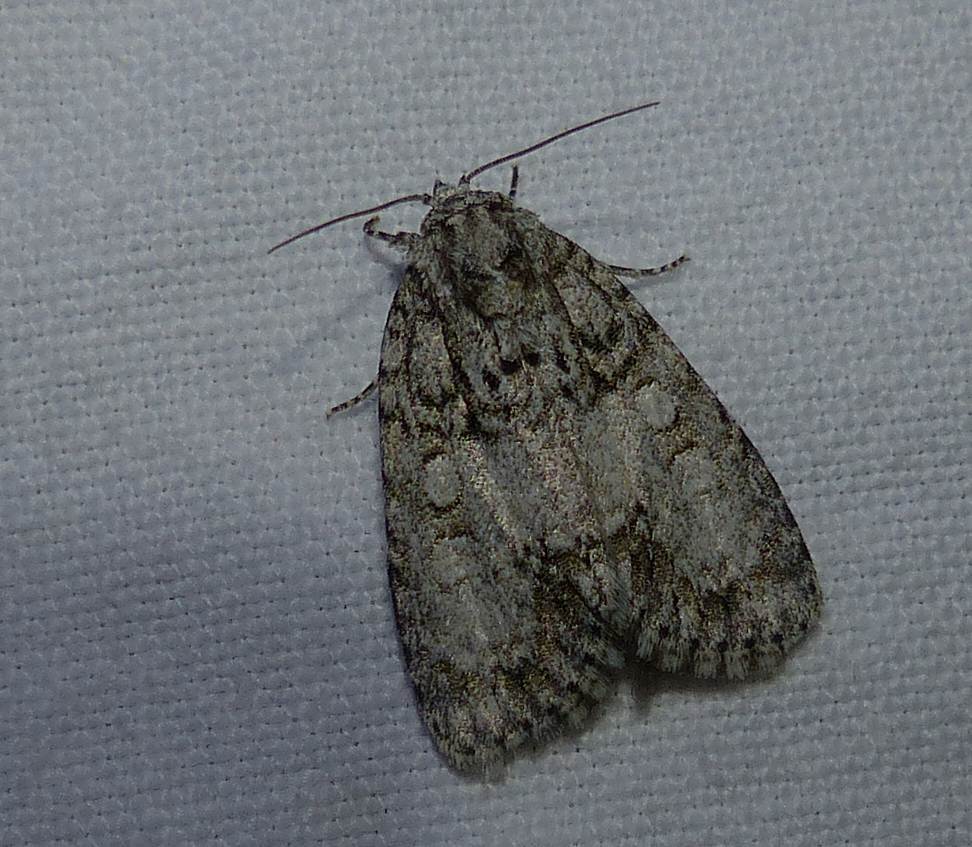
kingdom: Animalia
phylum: Arthropoda
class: Insecta
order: Lepidoptera
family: Noctuidae
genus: Acronicta
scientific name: Acronicta retardata
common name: Maple dagger
